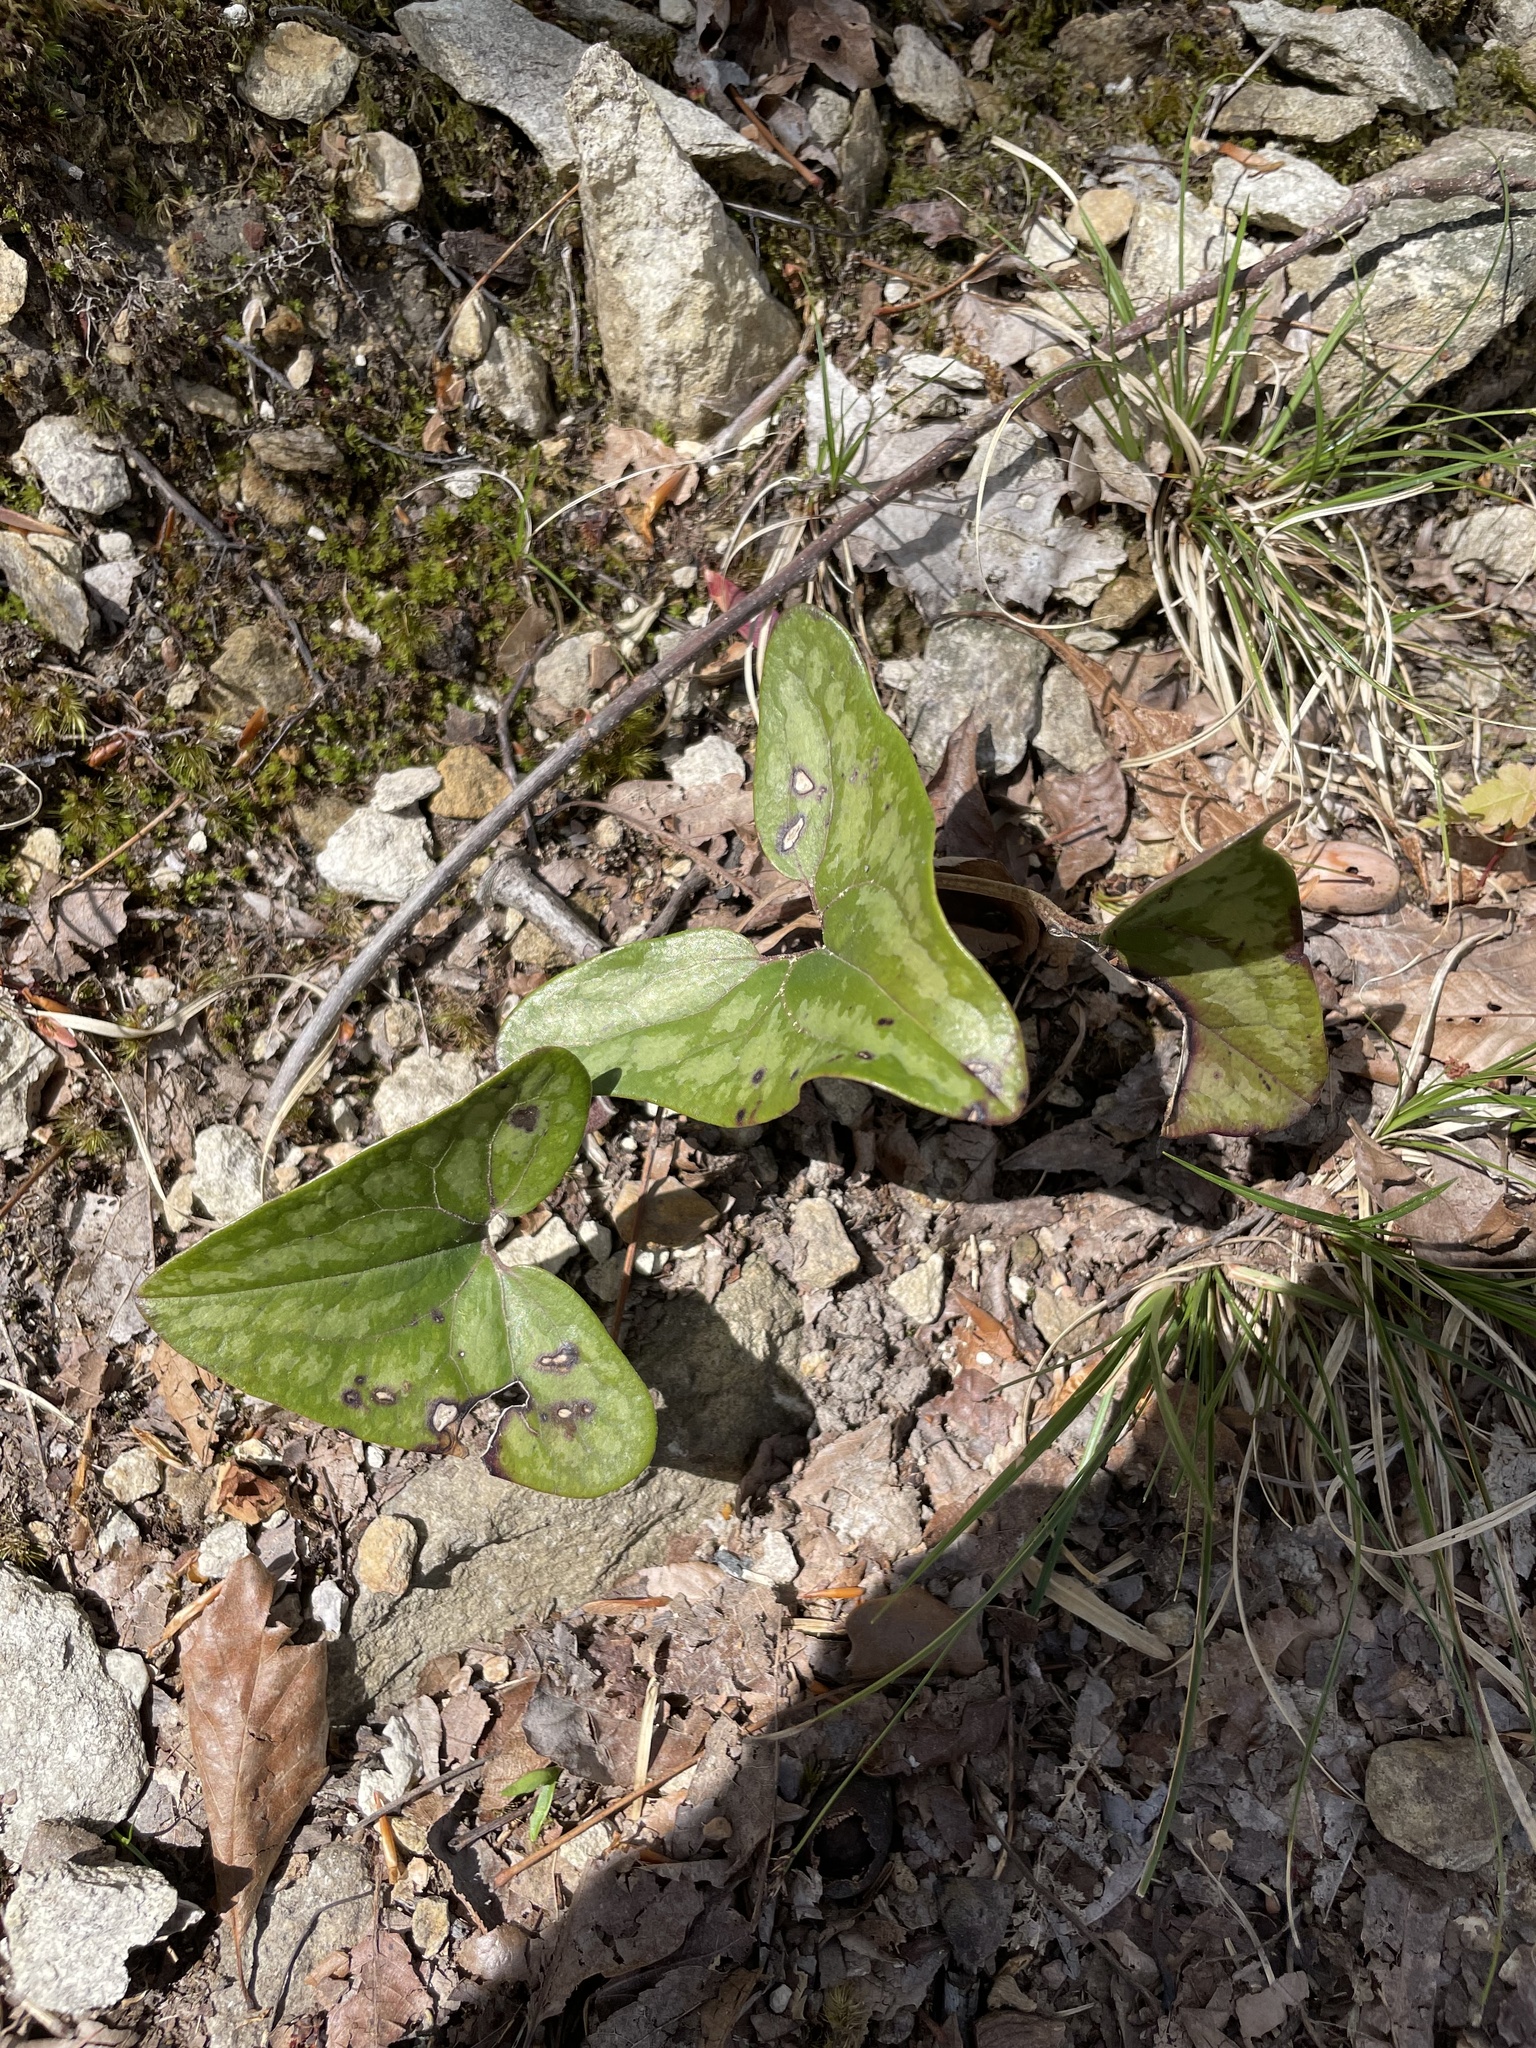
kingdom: Plantae
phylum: Tracheophyta
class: Magnoliopsida
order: Piperales
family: Aristolochiaceae
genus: Hexastylis
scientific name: Hexastylis arifolia
